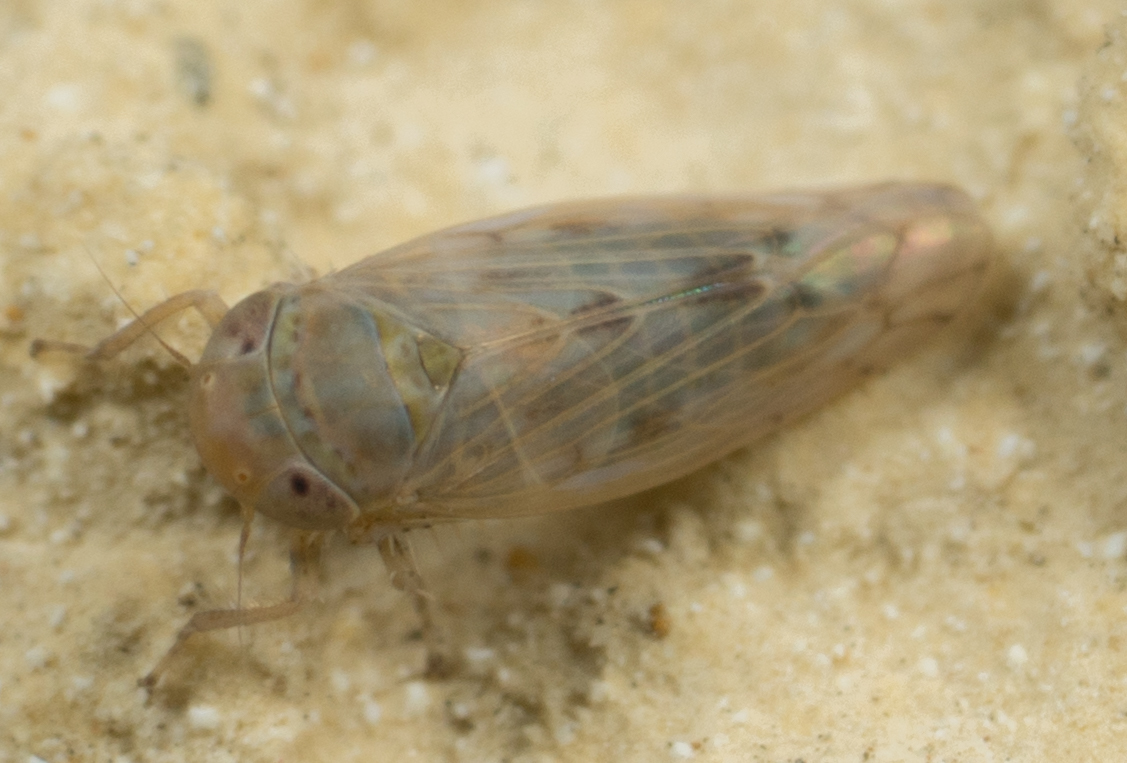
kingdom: Animalia
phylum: Arthropoda
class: Insecta
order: Hemiptera
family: Cicadellidae
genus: Neoaliturus
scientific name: Neoaliturus tenellus
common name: Leafhopper
